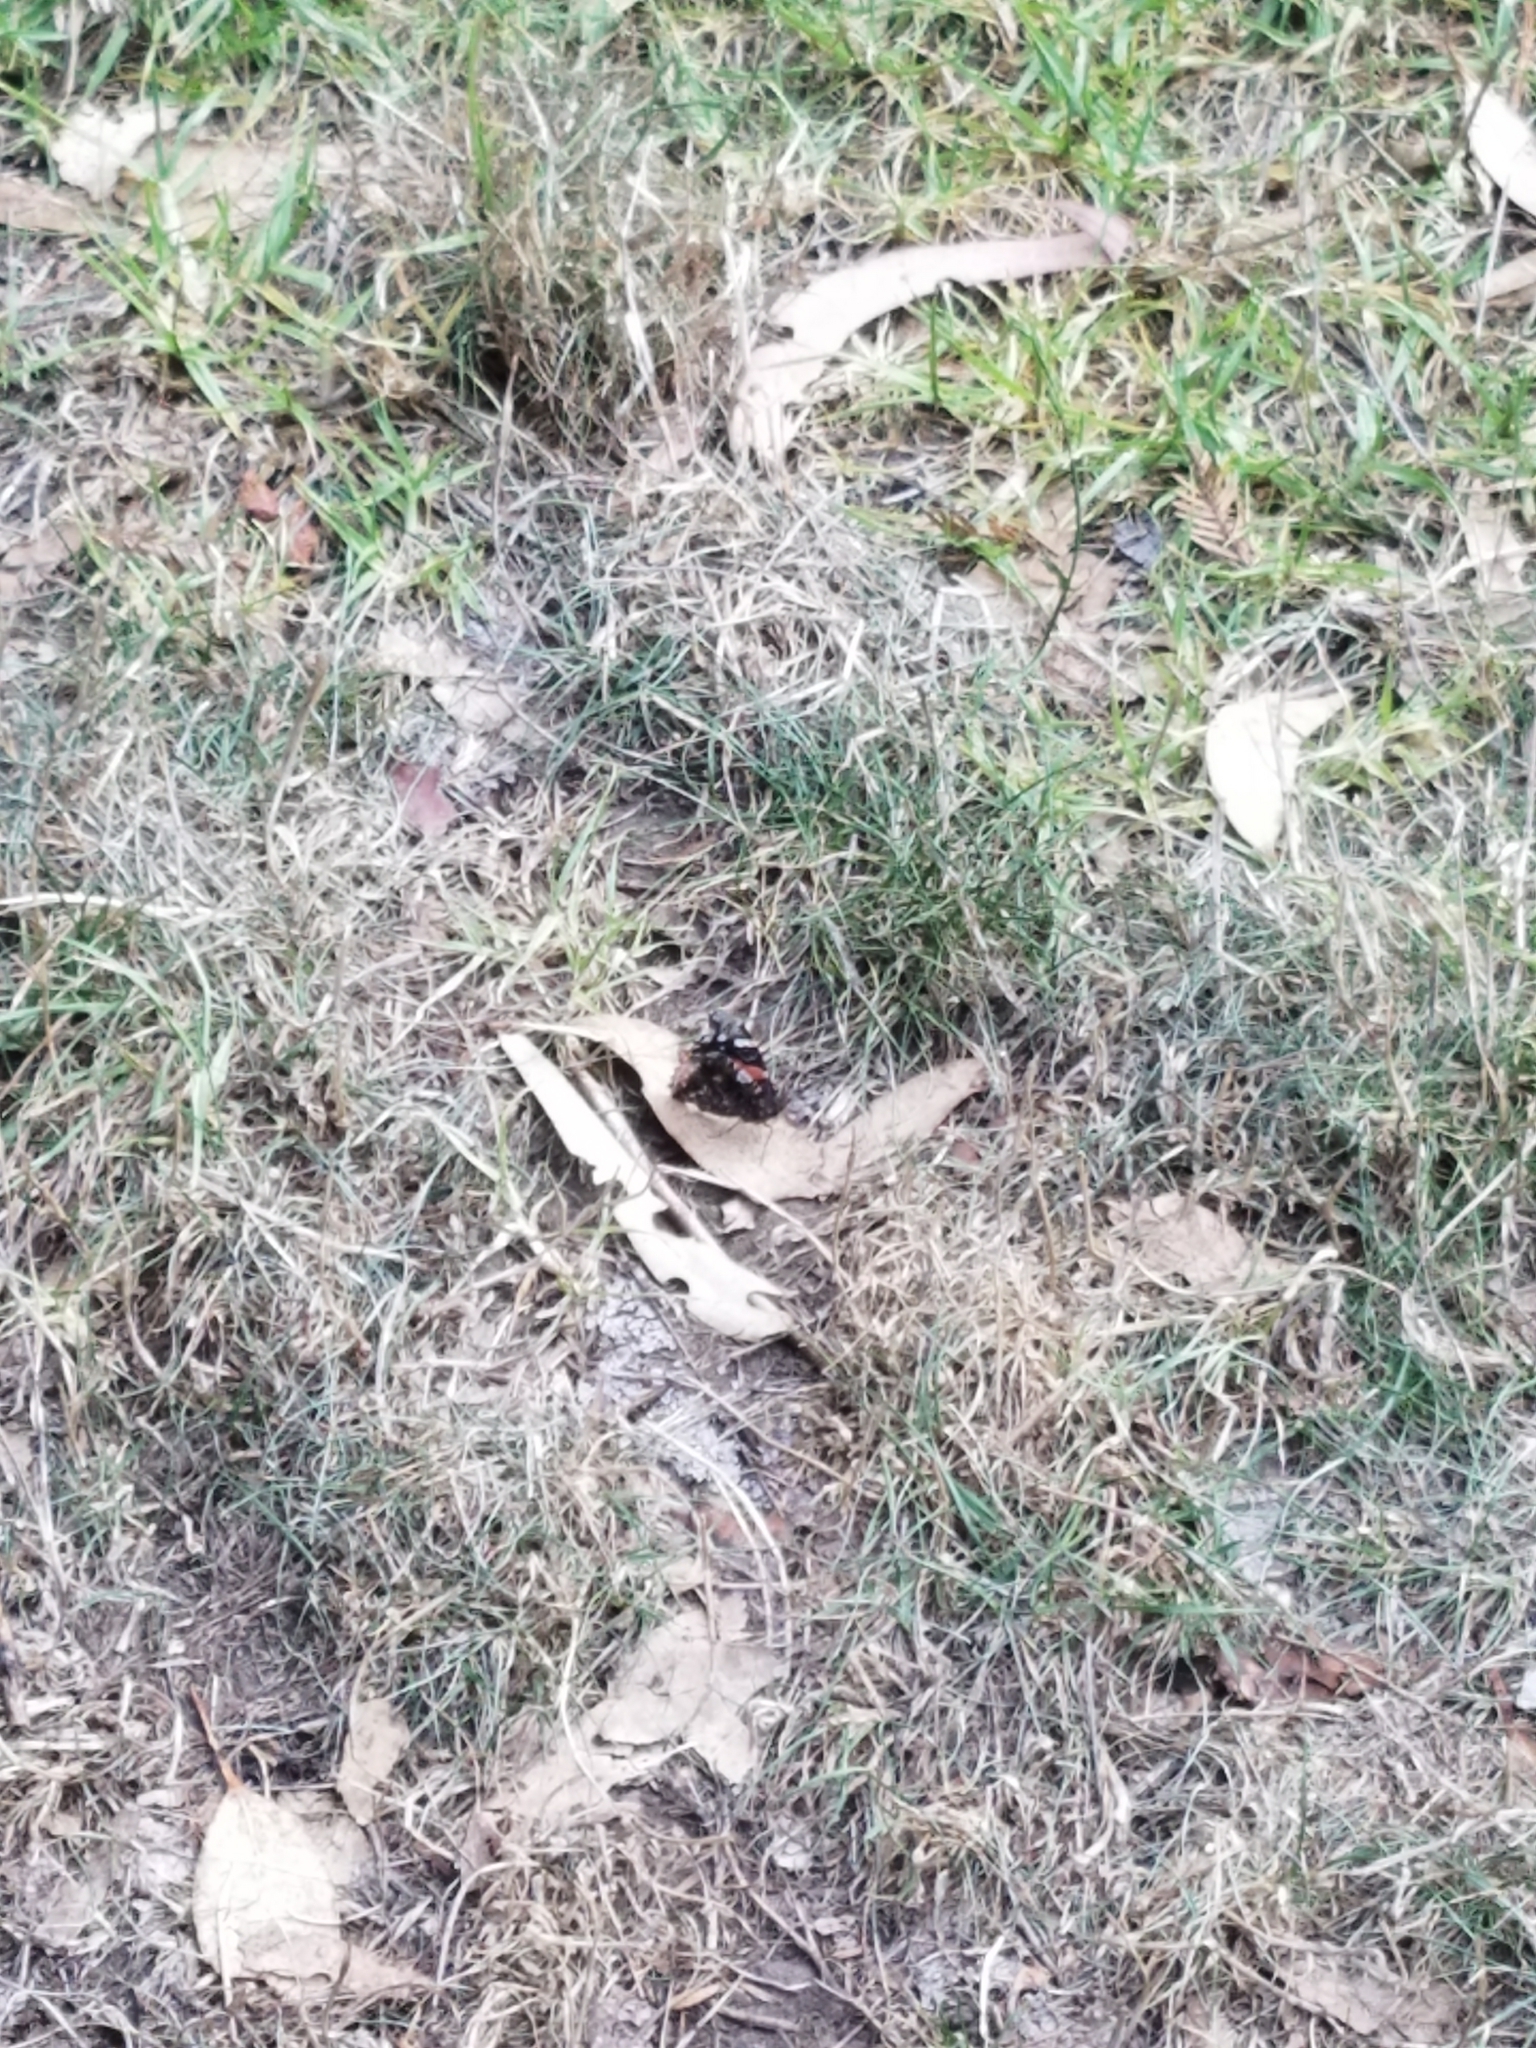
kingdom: Animalia
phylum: Arthropoda
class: Insecta
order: Lepidoptera
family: Nymphalidae
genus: Vanessa
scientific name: Vanessa atalanta
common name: Red admiral
